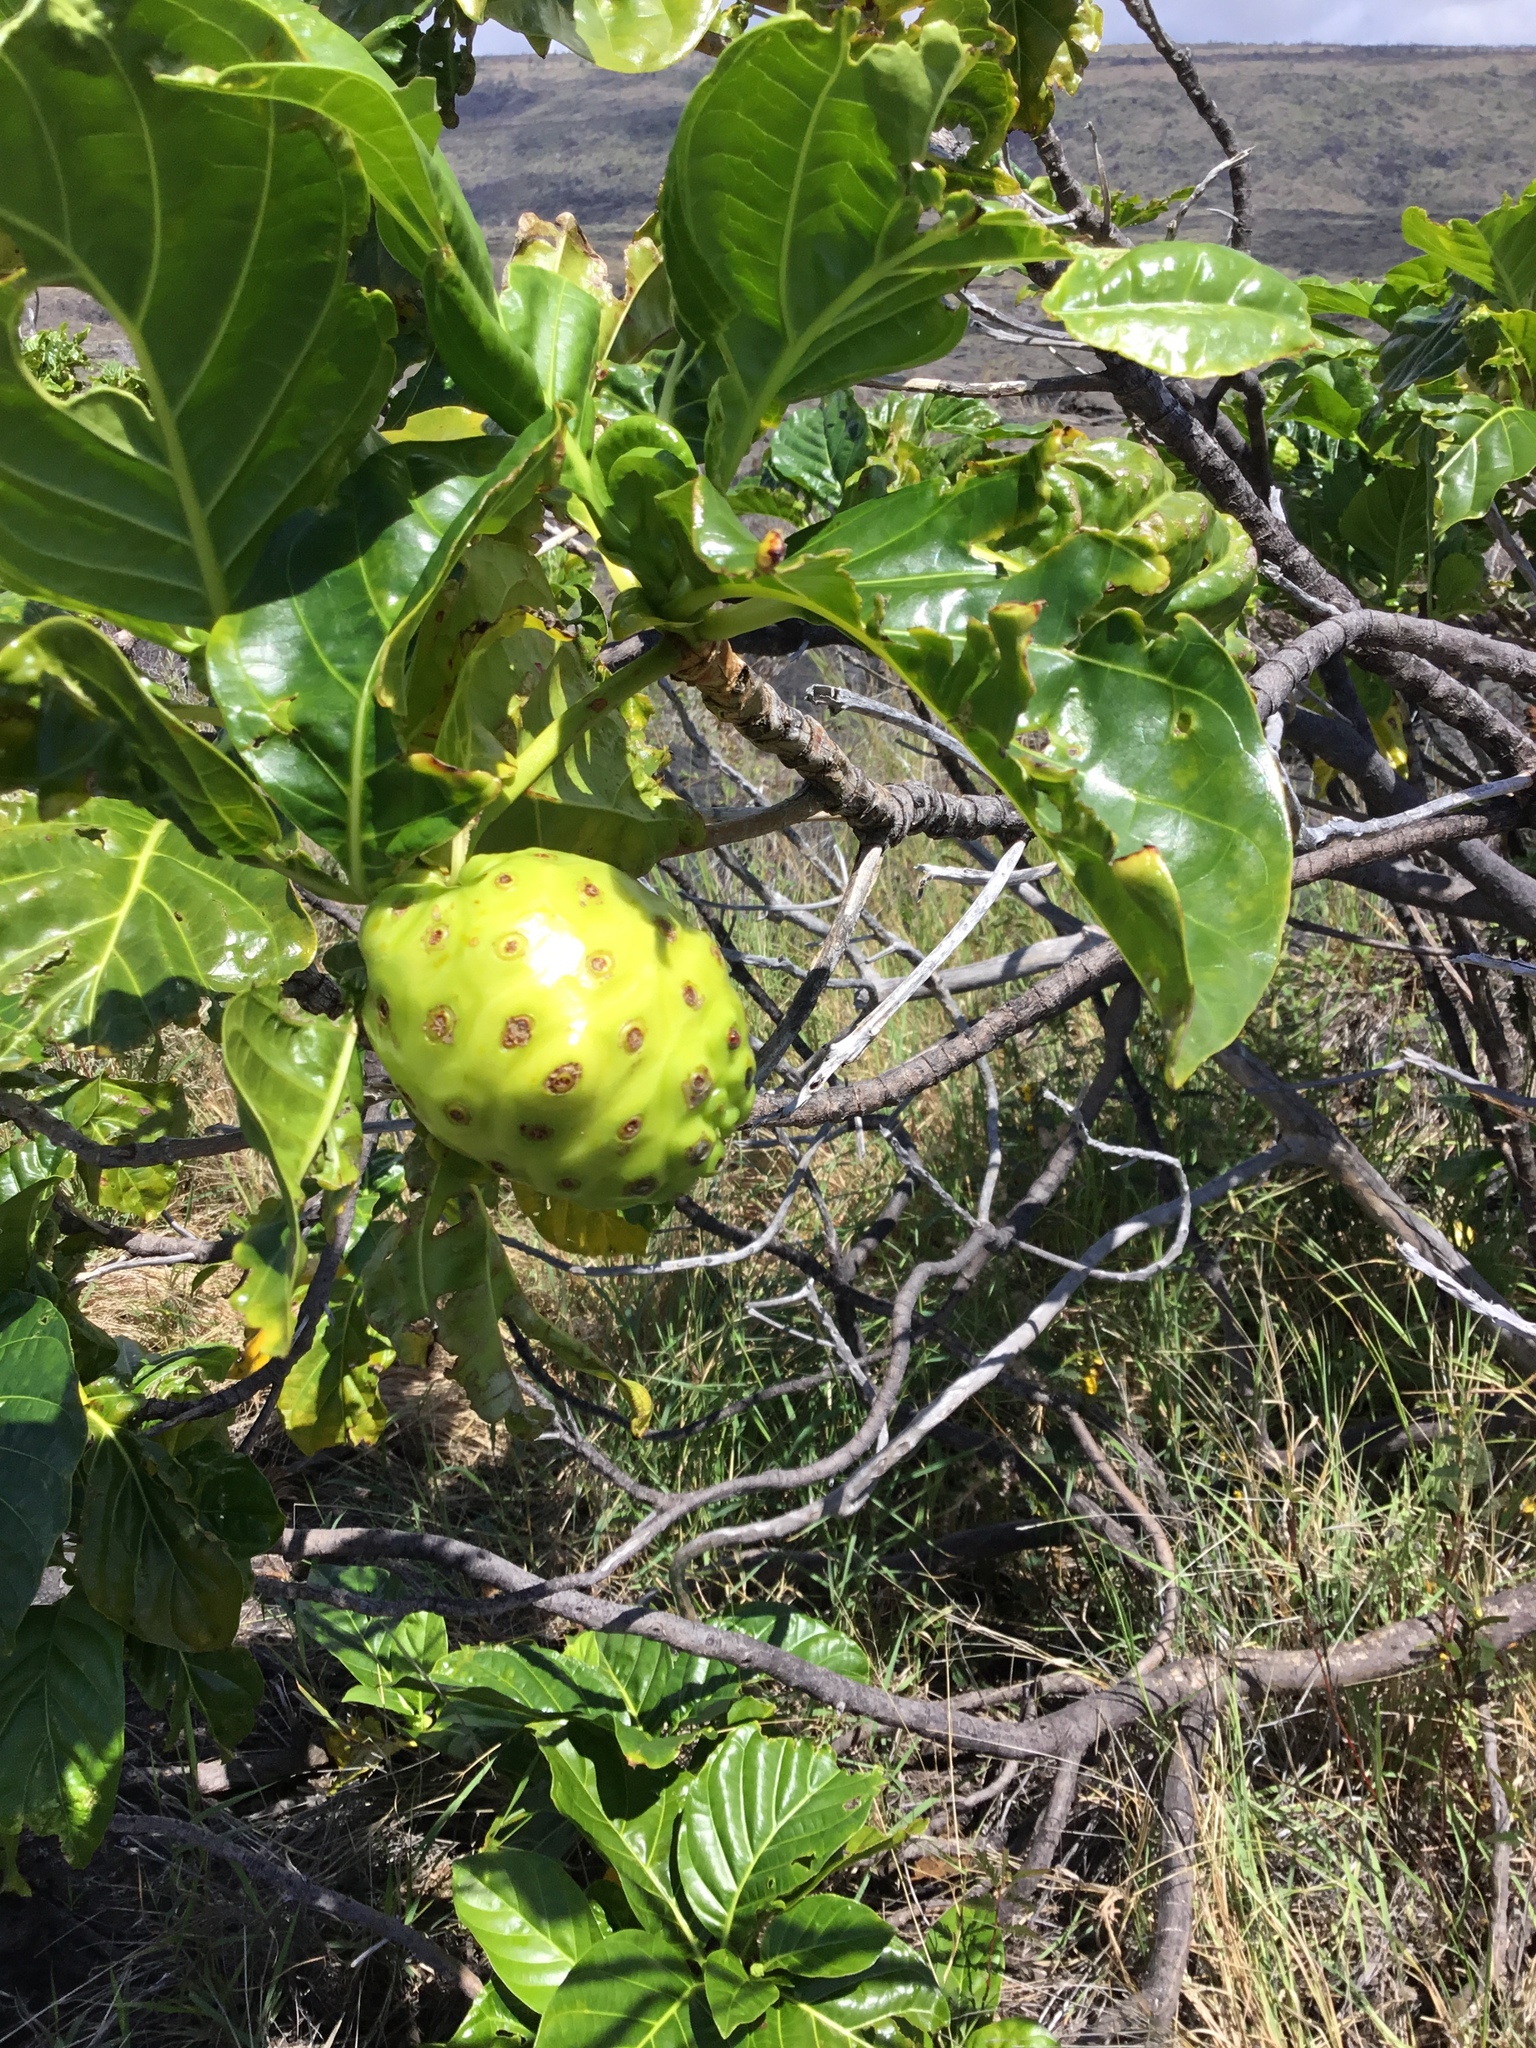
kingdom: Plantae
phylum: Tracheophyta
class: Magnoliopsida
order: Gentianales
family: Rubiaceae
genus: Morinda
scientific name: Morinda citrifolia
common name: Indian-mulberry
